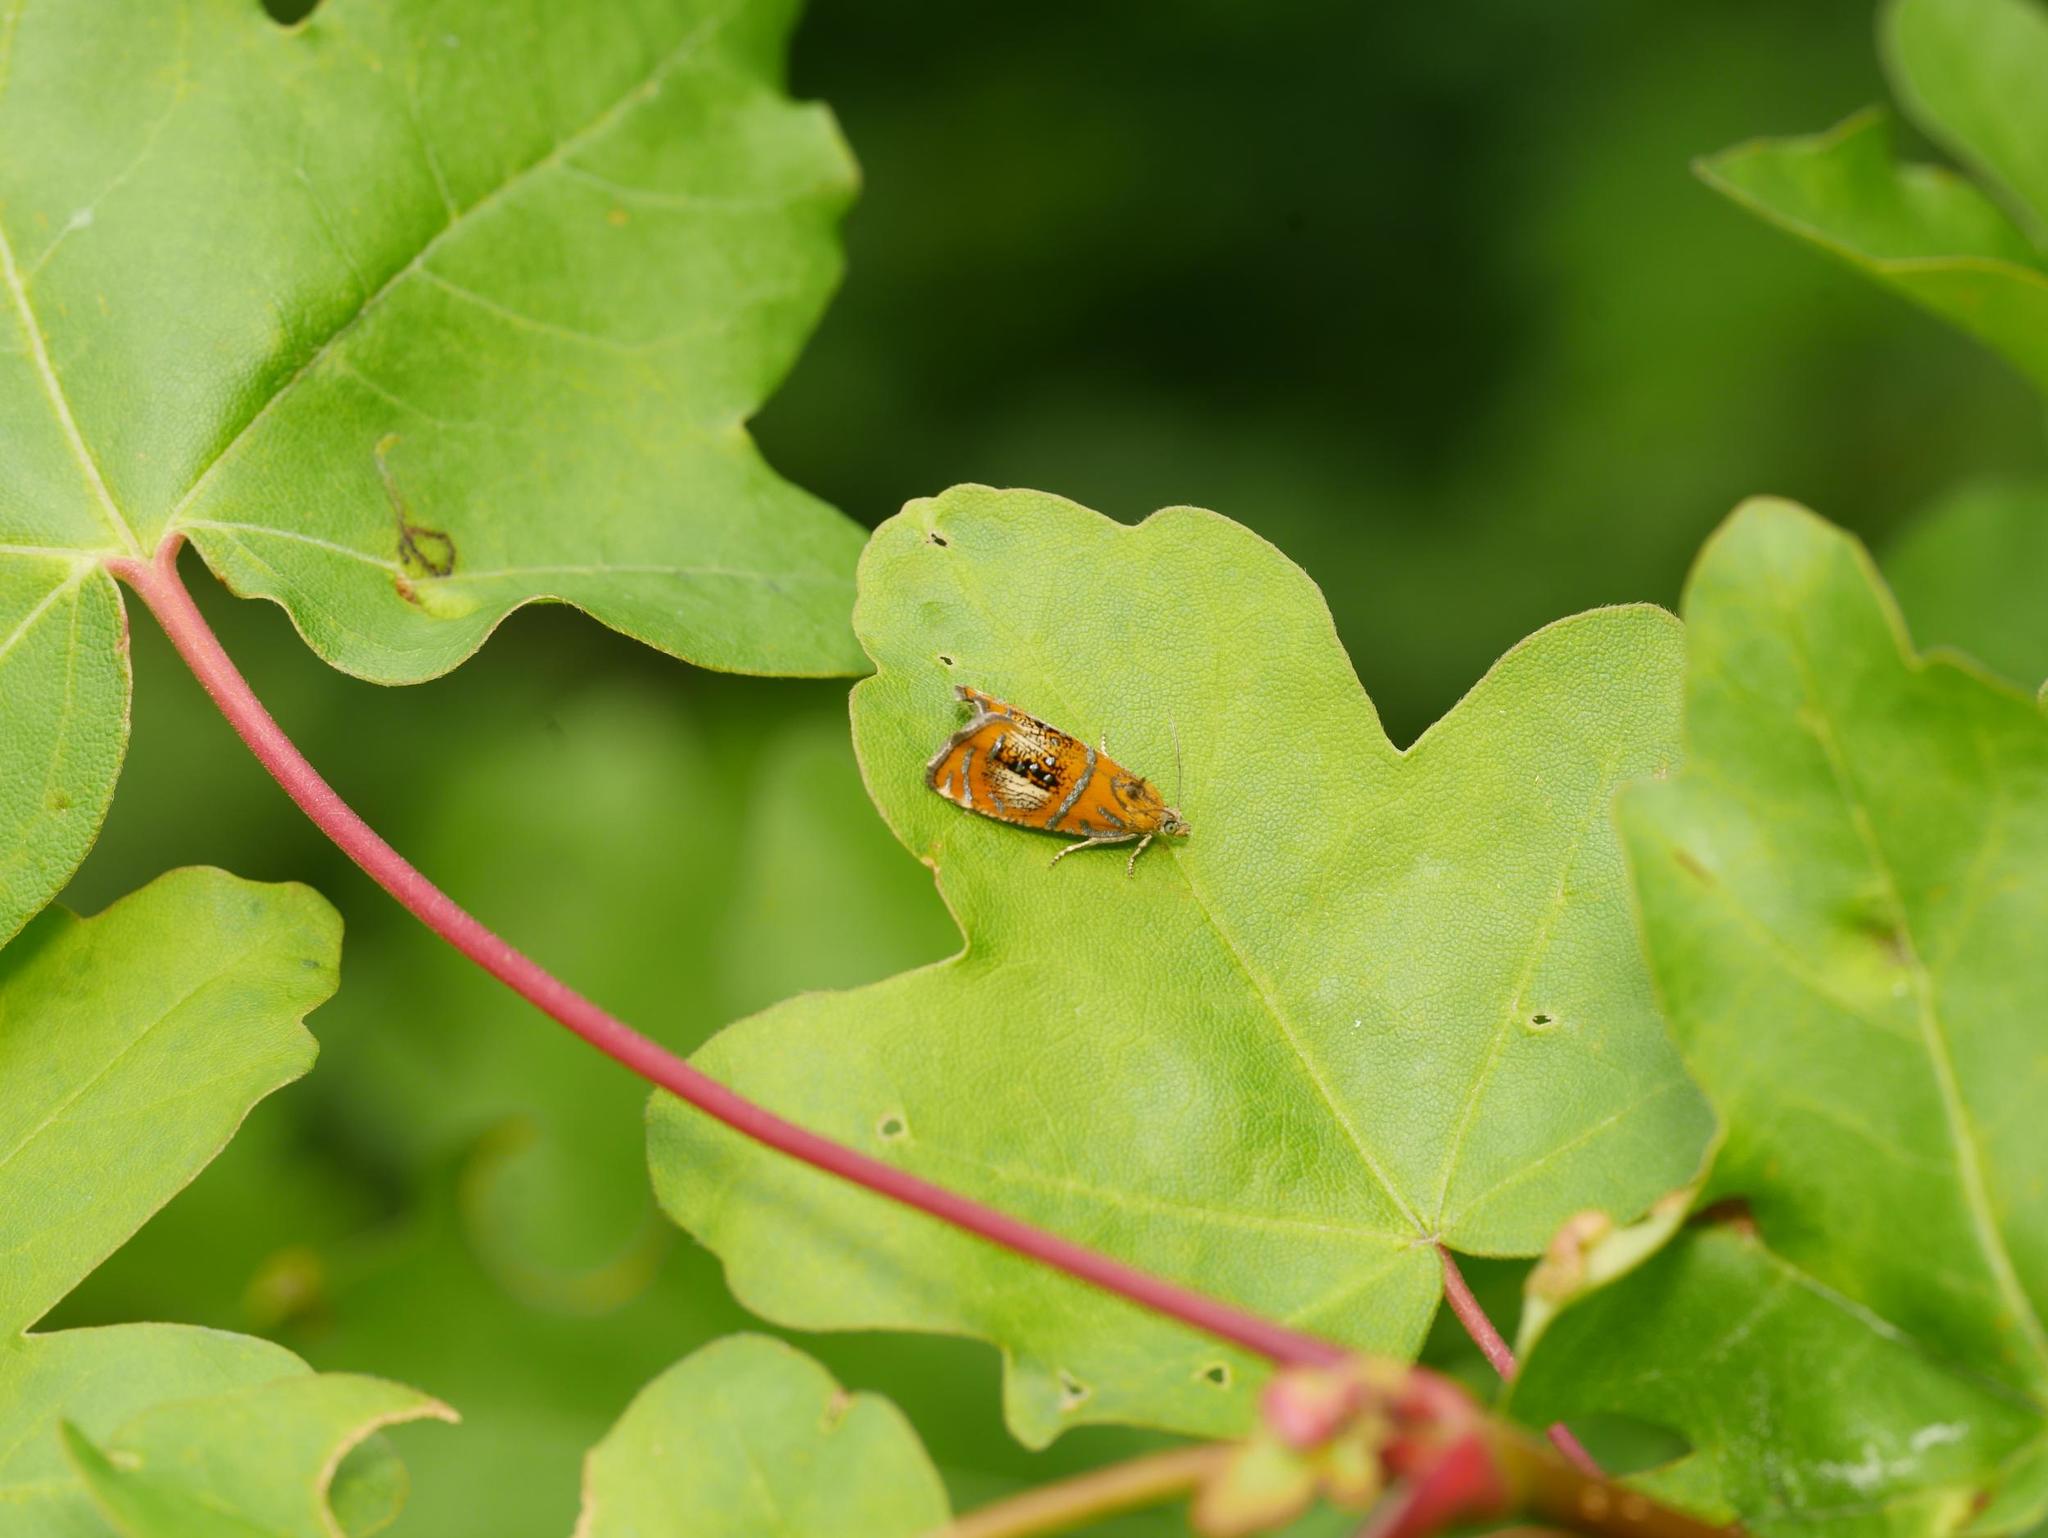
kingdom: Animalia
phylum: Arthropoda
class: Insecta
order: Lepidoptera
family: Tortricidae
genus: Olethreutes
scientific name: Olethreutes arcuella
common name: Arched marble
